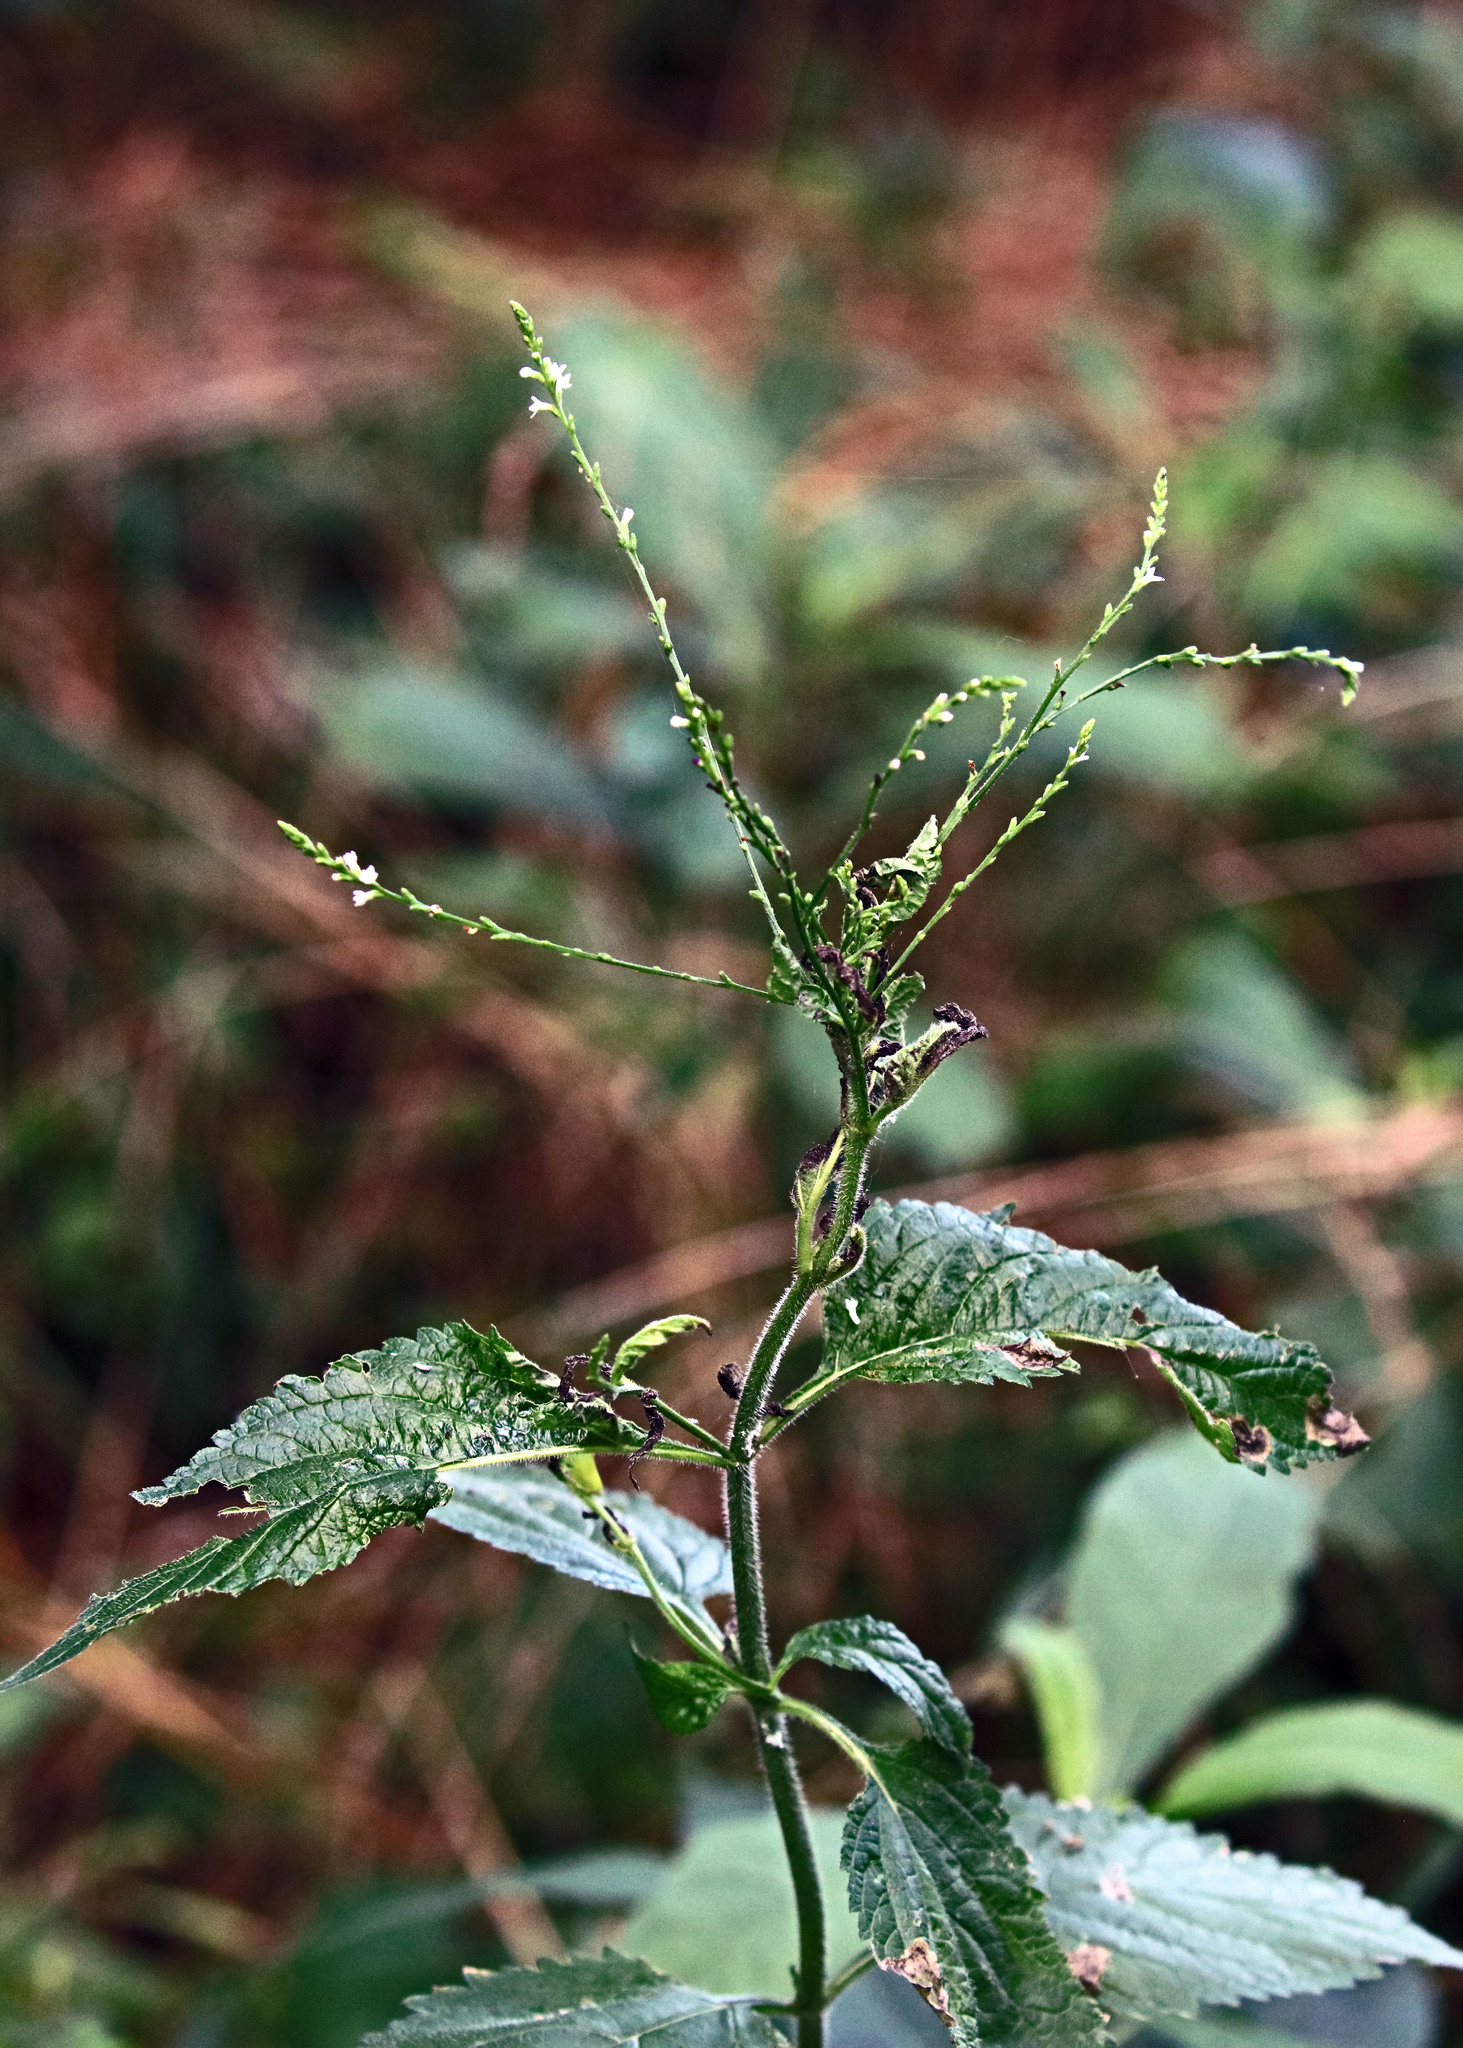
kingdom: Plantae
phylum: Tracheophyta
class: Magnoliopsida
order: Lamiales
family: Verbenaceae
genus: Verbena
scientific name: Verbena urticifolia
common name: Nettle-leaved vervain
